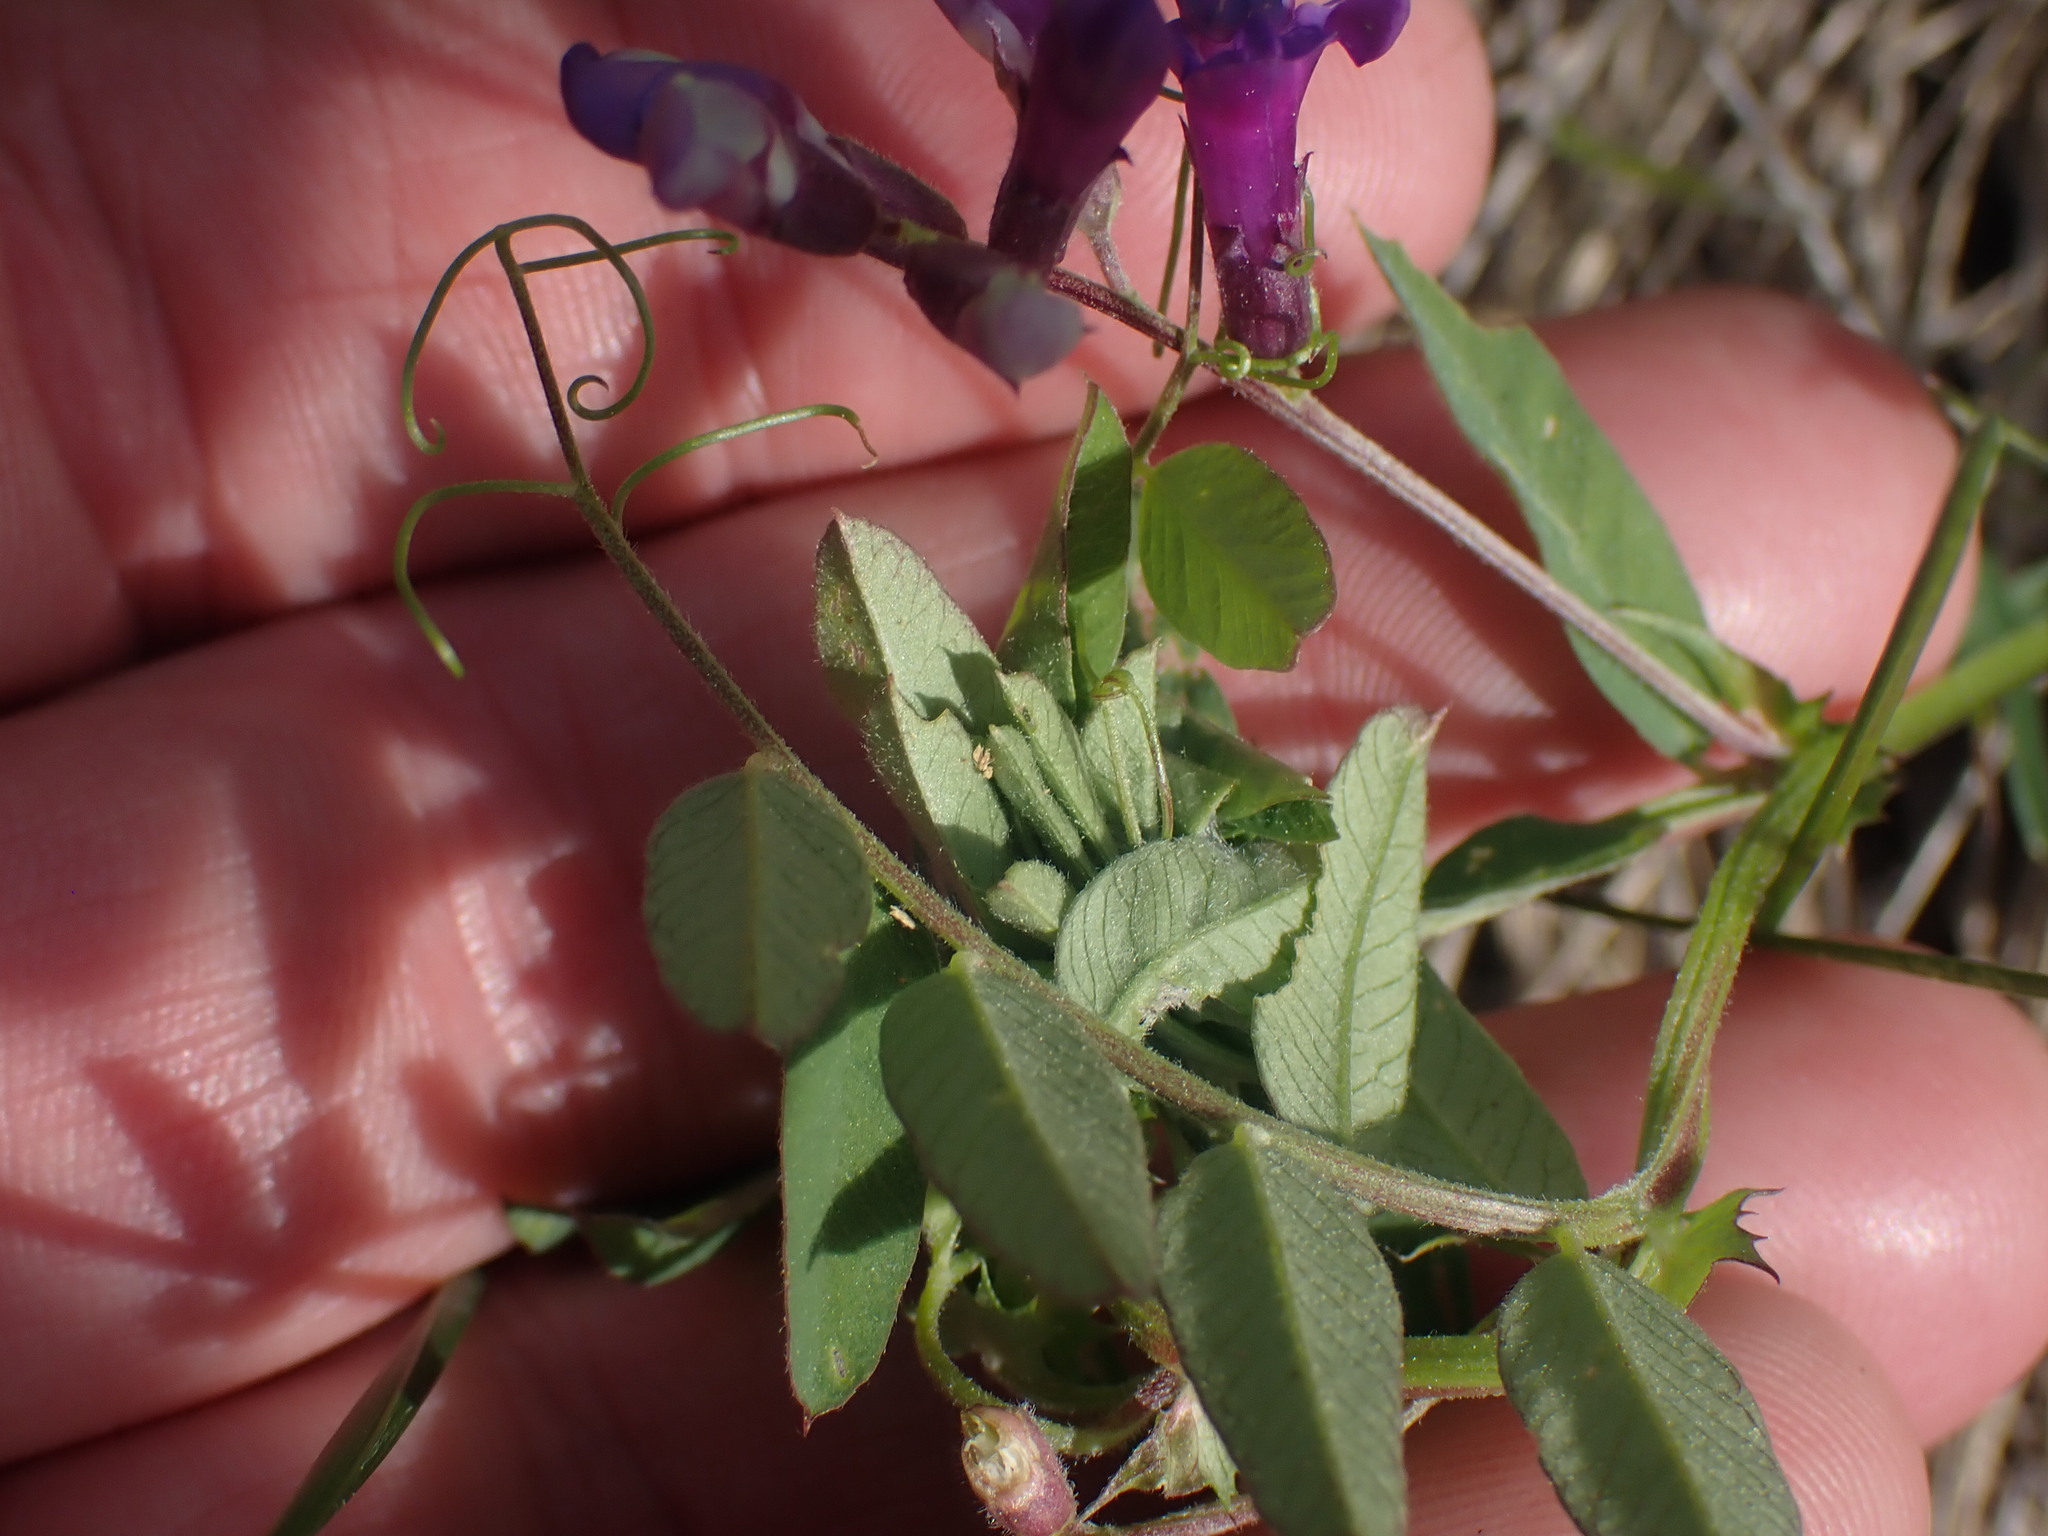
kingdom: Plantae
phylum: Tracheophyta
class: Magnoliopsida
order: Fabales
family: Fabaceae
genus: Vicia
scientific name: Vicia americana
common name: American vetch
